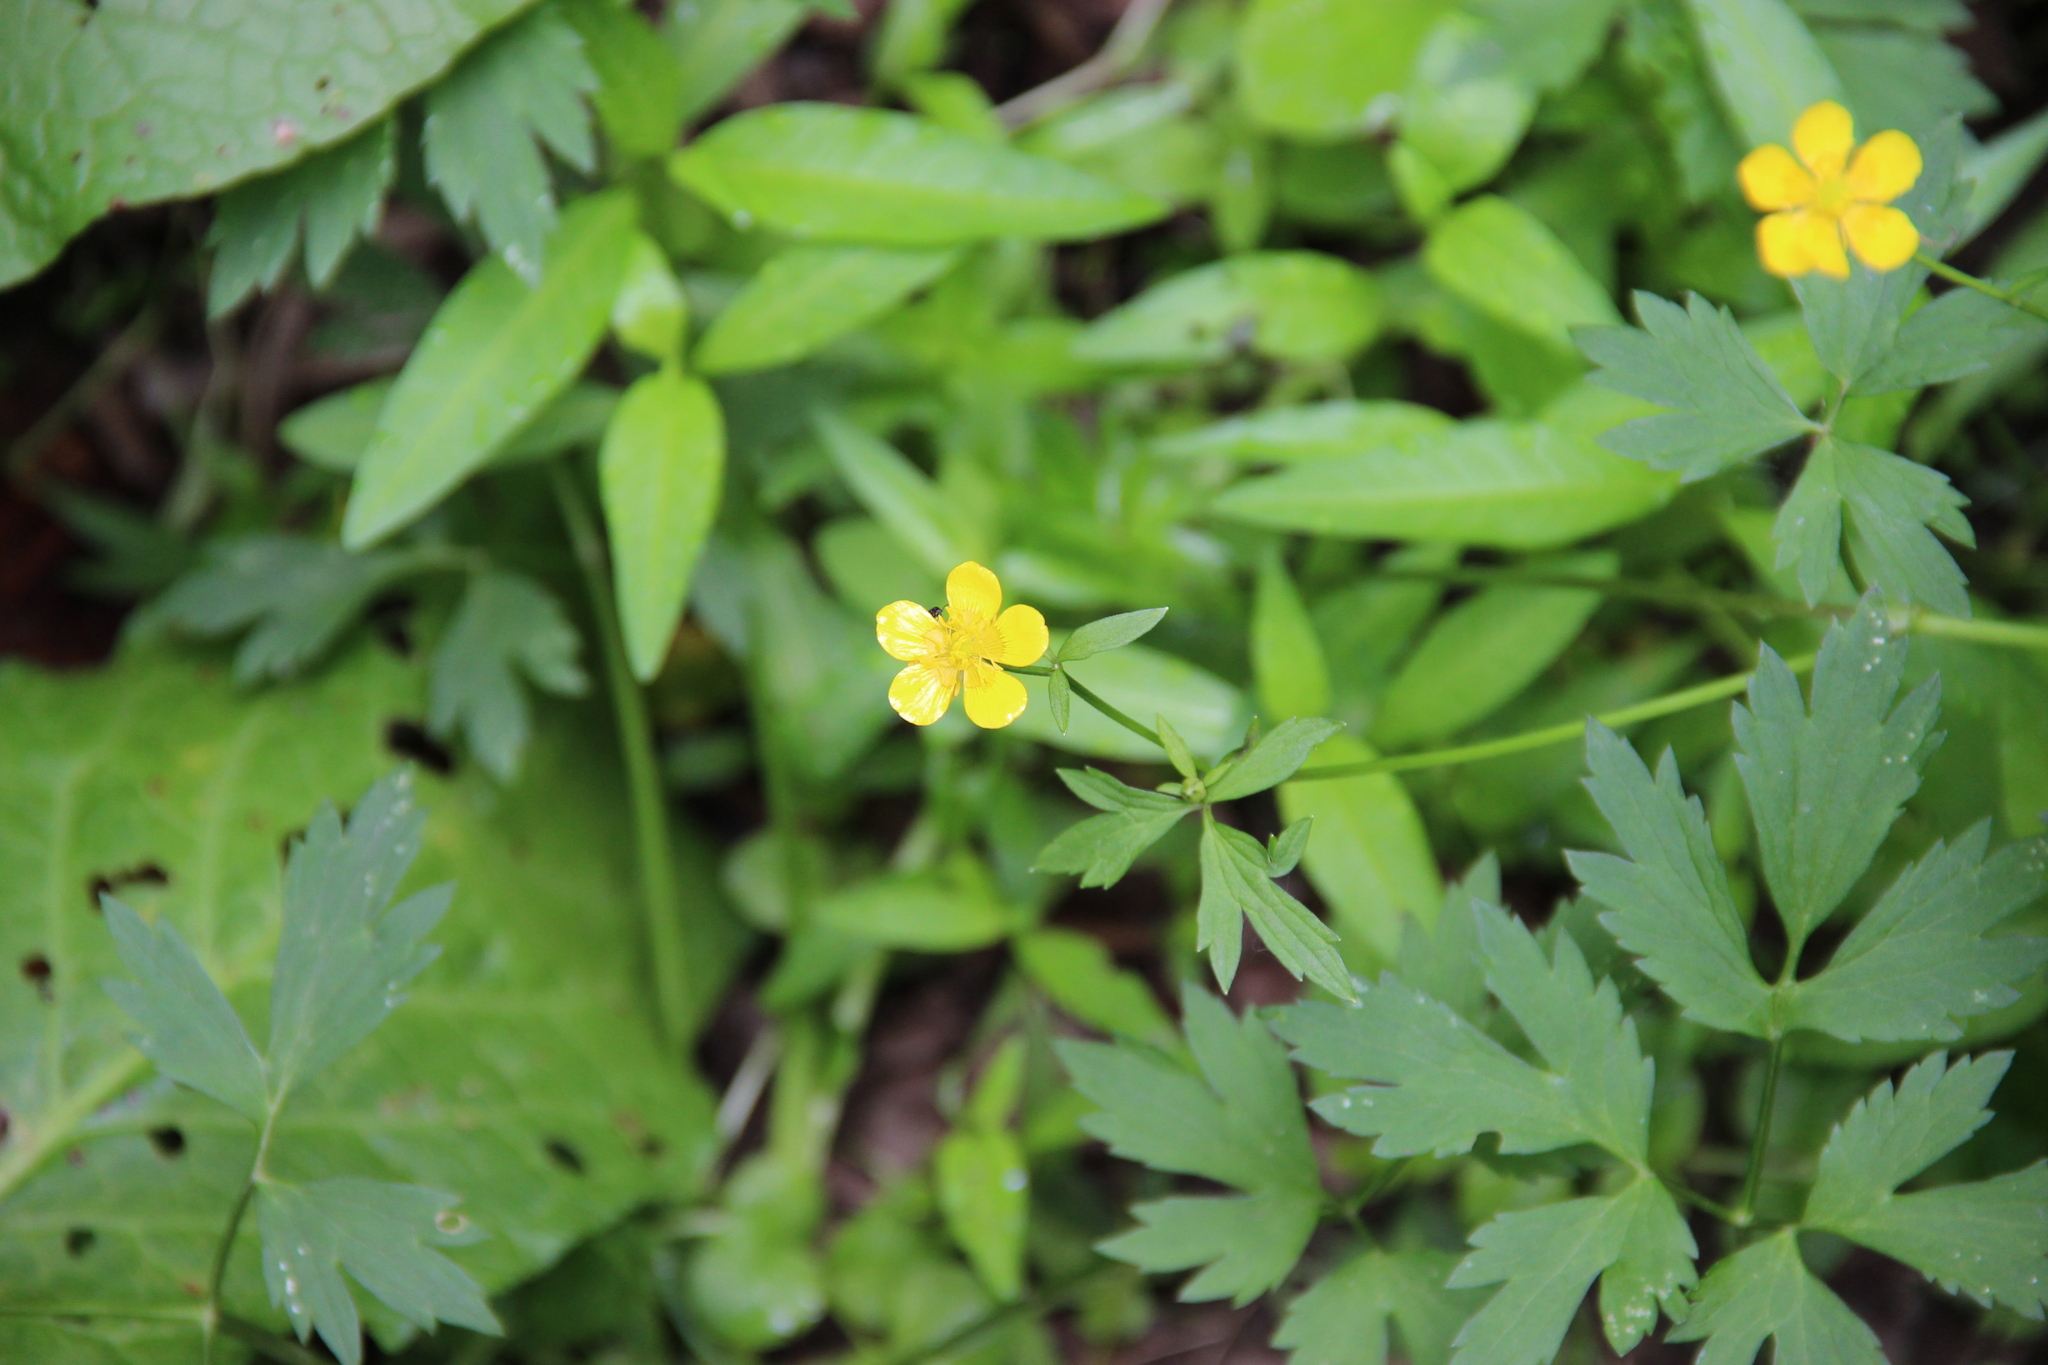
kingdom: Plantae
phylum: Tracheophyta
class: Magnoliopsida
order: Ranunculales
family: Ranunculaceae
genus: Ranunculus
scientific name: Ranunculus repens
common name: Creeping buttercup
